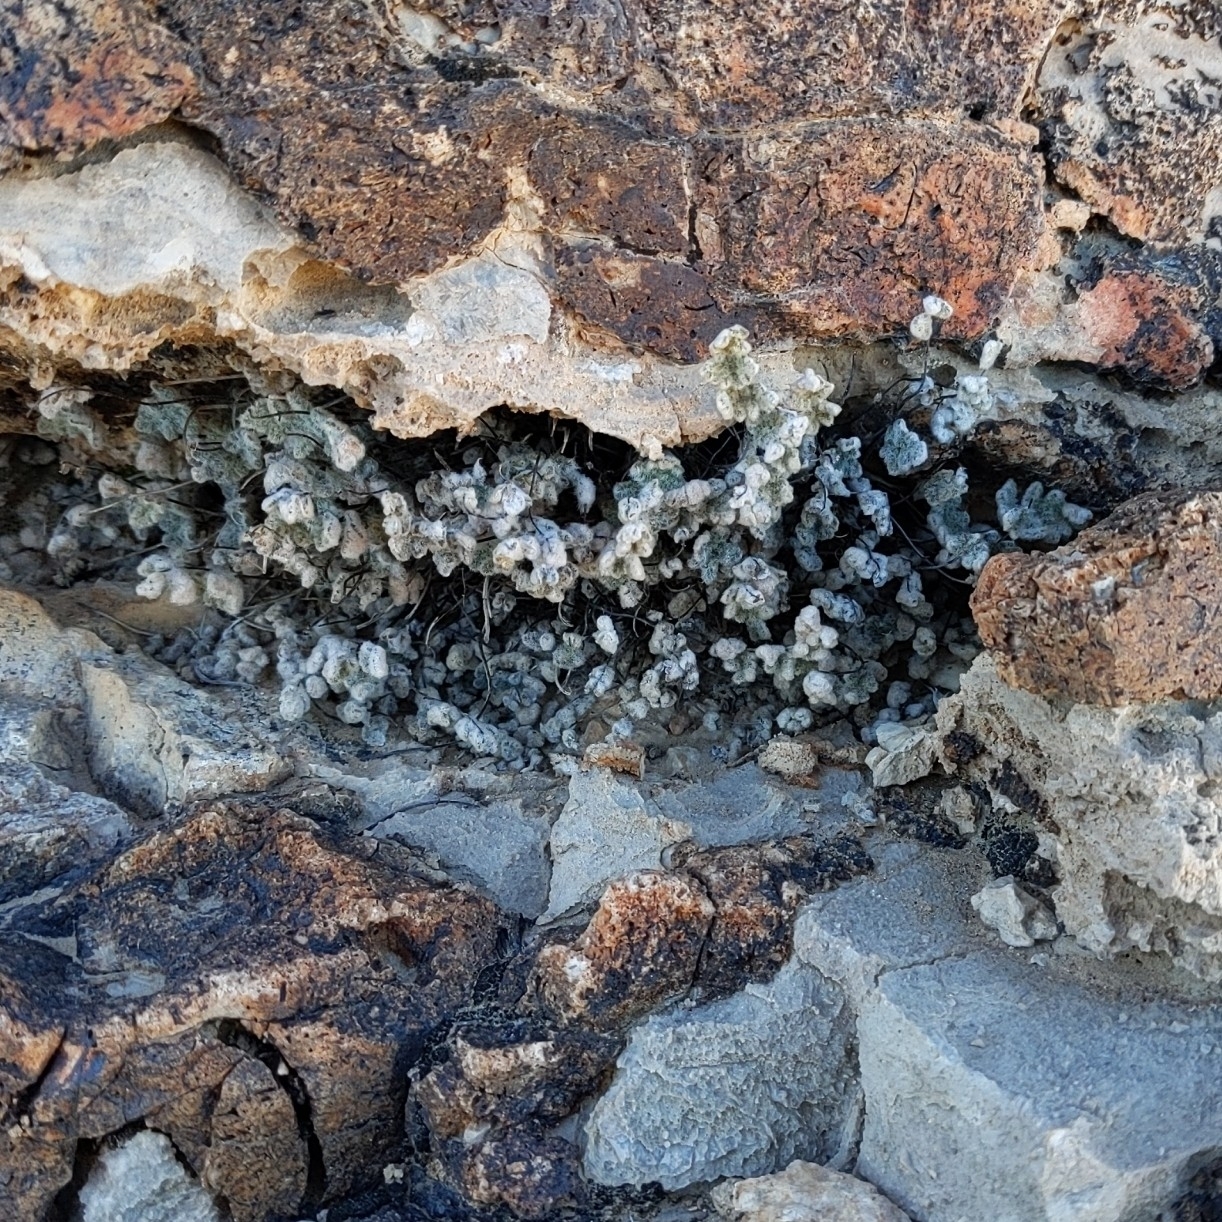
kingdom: Plantae
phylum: Tracheophyta
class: Polypodiopsida
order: Polypodiales
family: Pteridaceae
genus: Myriopteris
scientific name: Myriopteris parryi
